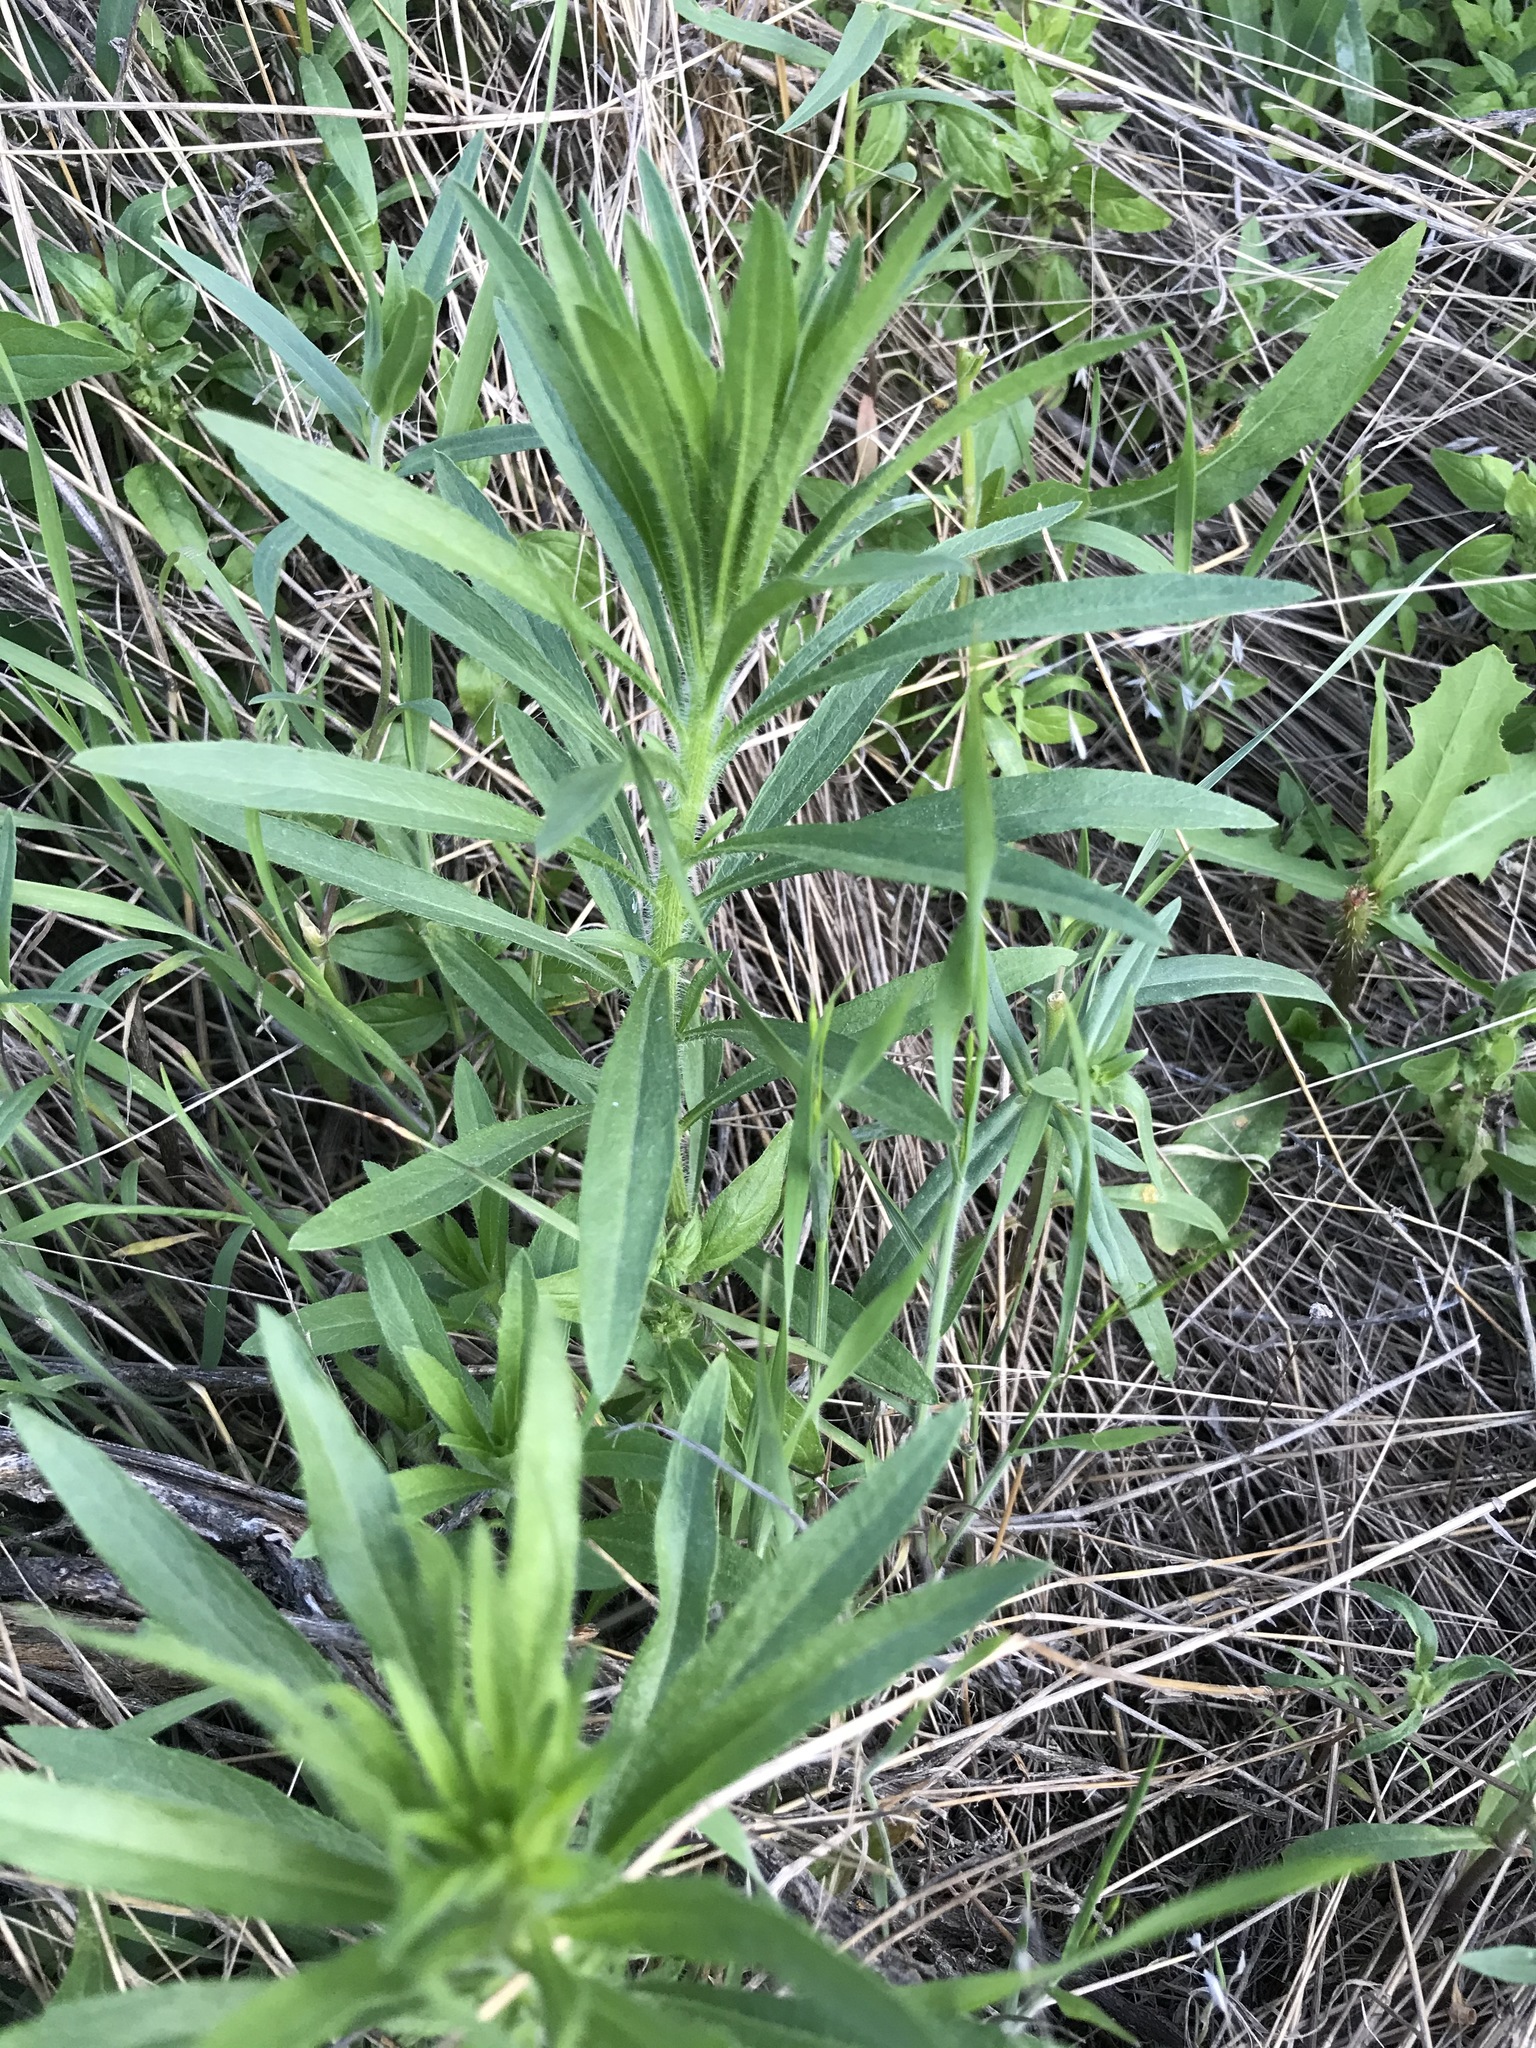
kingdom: Plantae
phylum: Tracheophyta
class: Magnoliopsida
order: Asterales
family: Asteraceae
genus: Erigeron
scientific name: Erigeron canadensis
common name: Canadian fleabane
